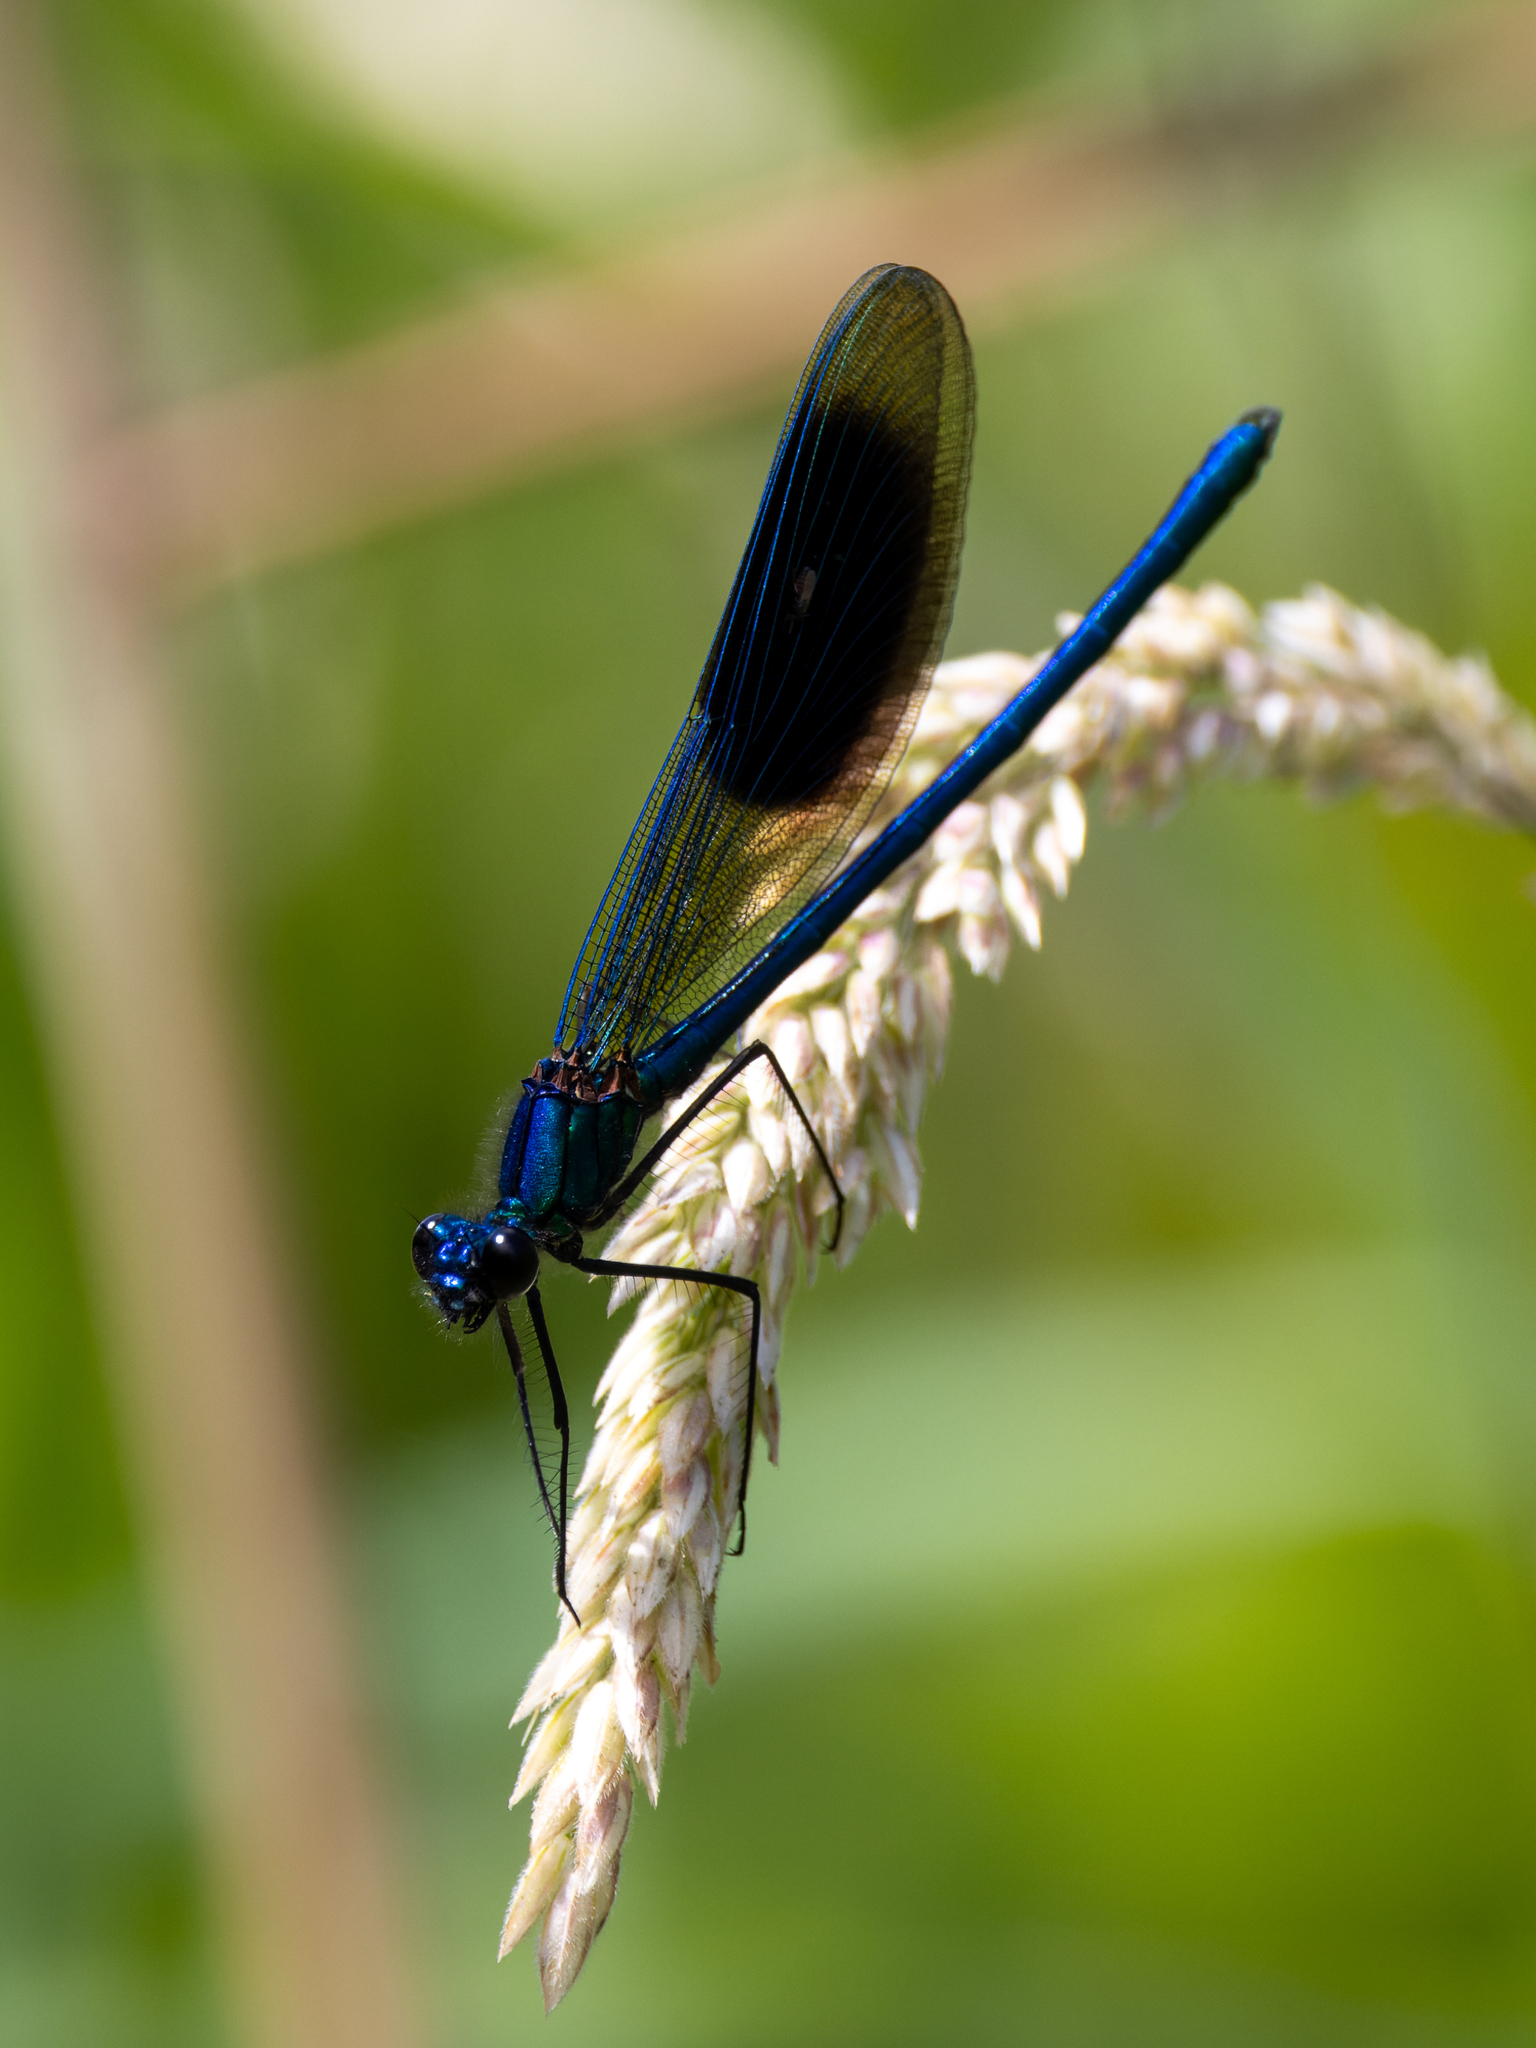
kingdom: Animalia
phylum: Arthropoda
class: Insecta
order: Odonata
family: Calopterygidae
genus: Calopteryx
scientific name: Calopteryx splendens
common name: Banded demoiselle
